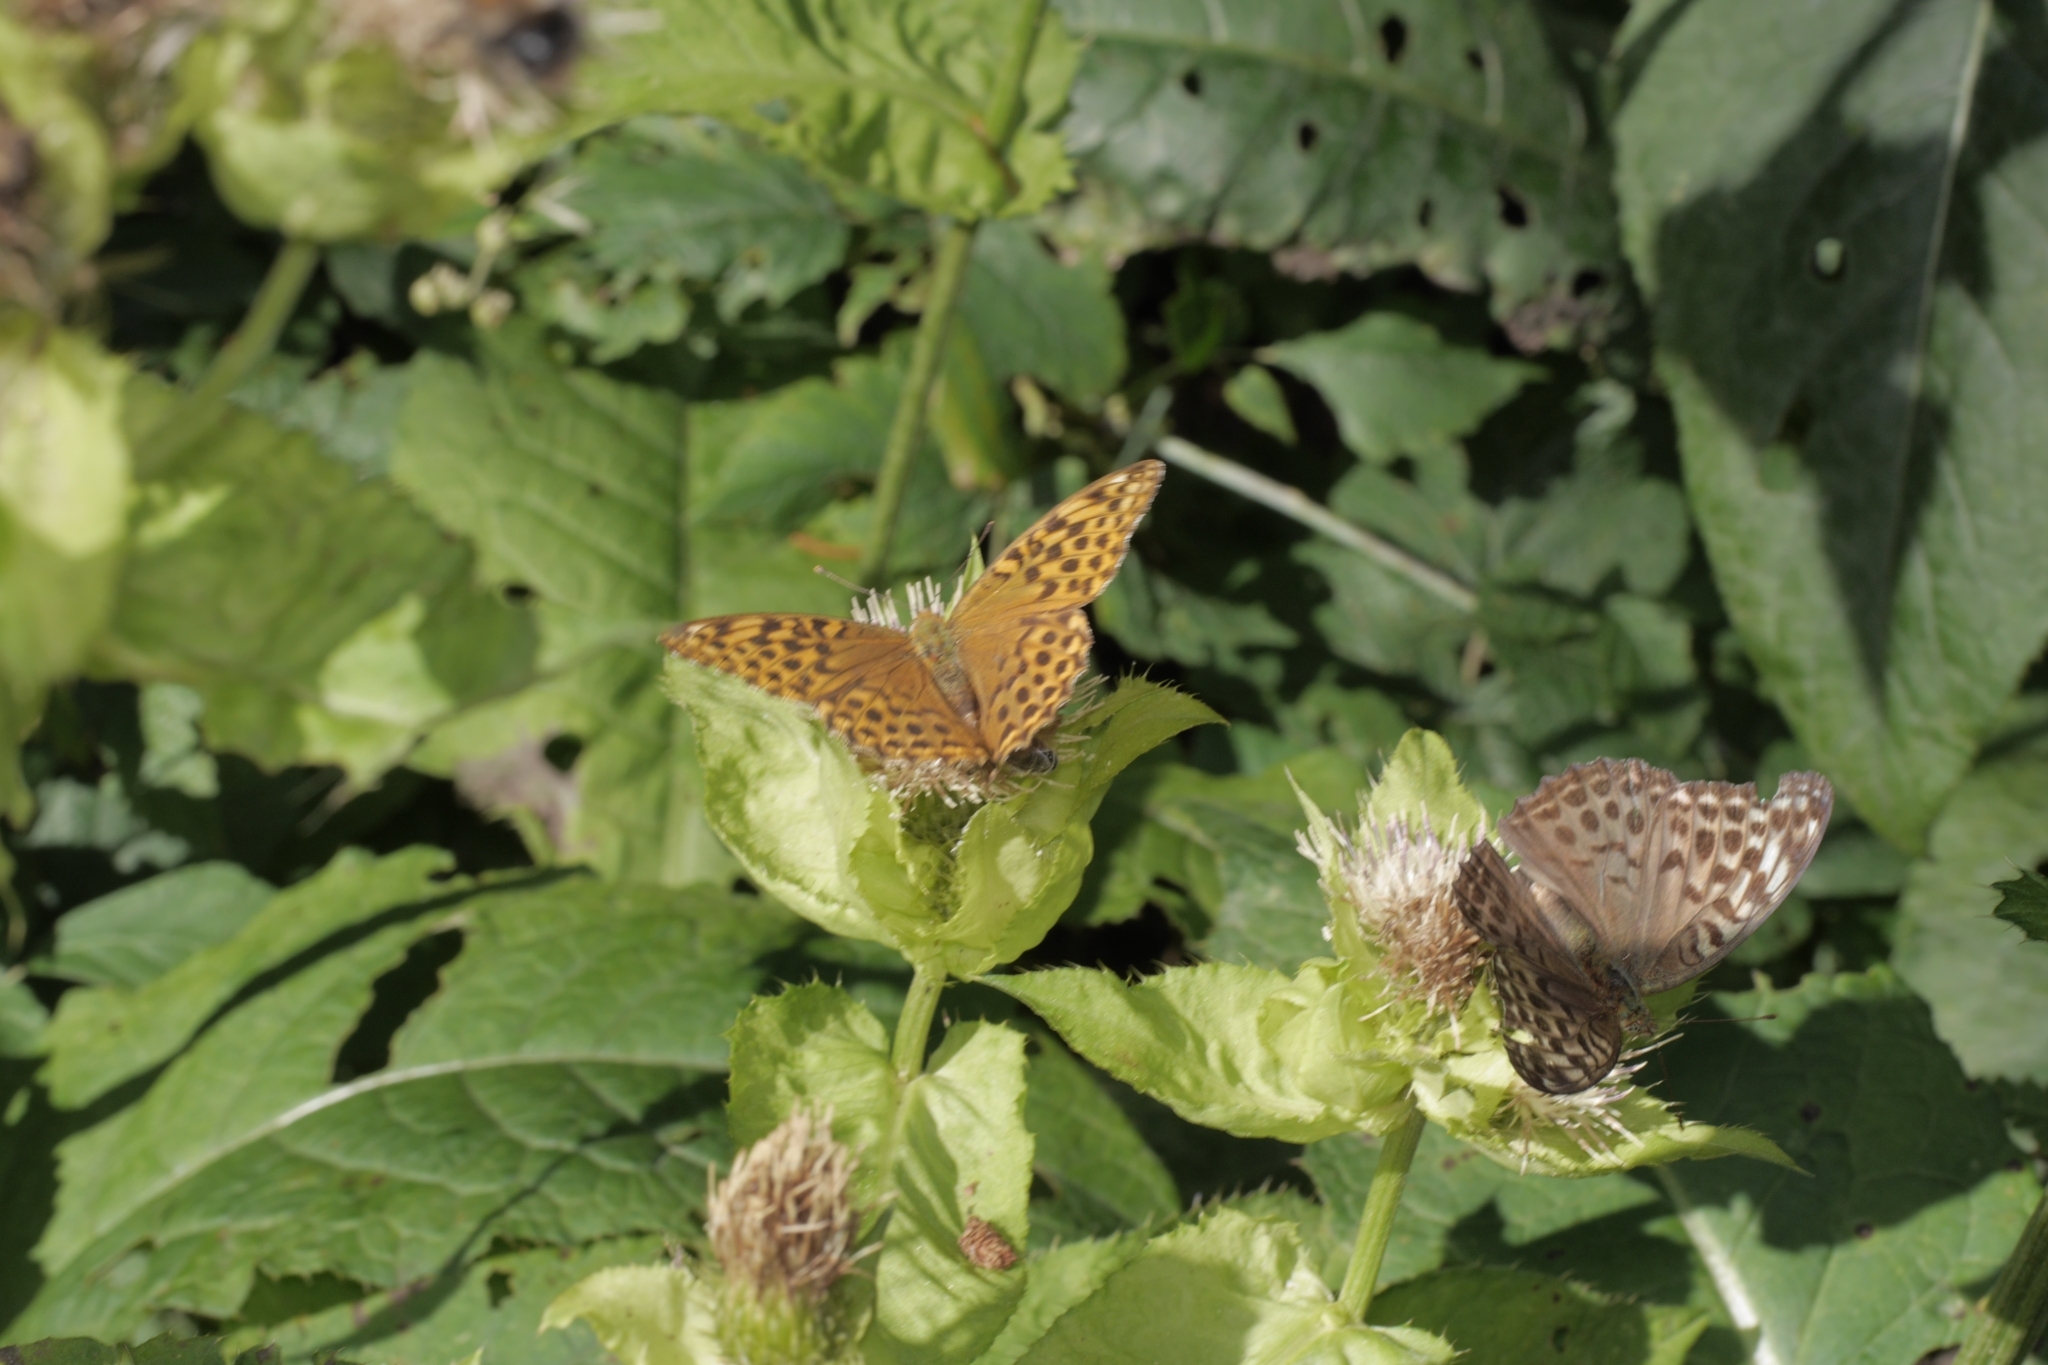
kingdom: Animalia
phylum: Arthropoda
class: Insecta
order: Lepidoptera
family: Nymphalidae
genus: Argynnis
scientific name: Argynnis paphia
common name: Silver-washed fritillary
